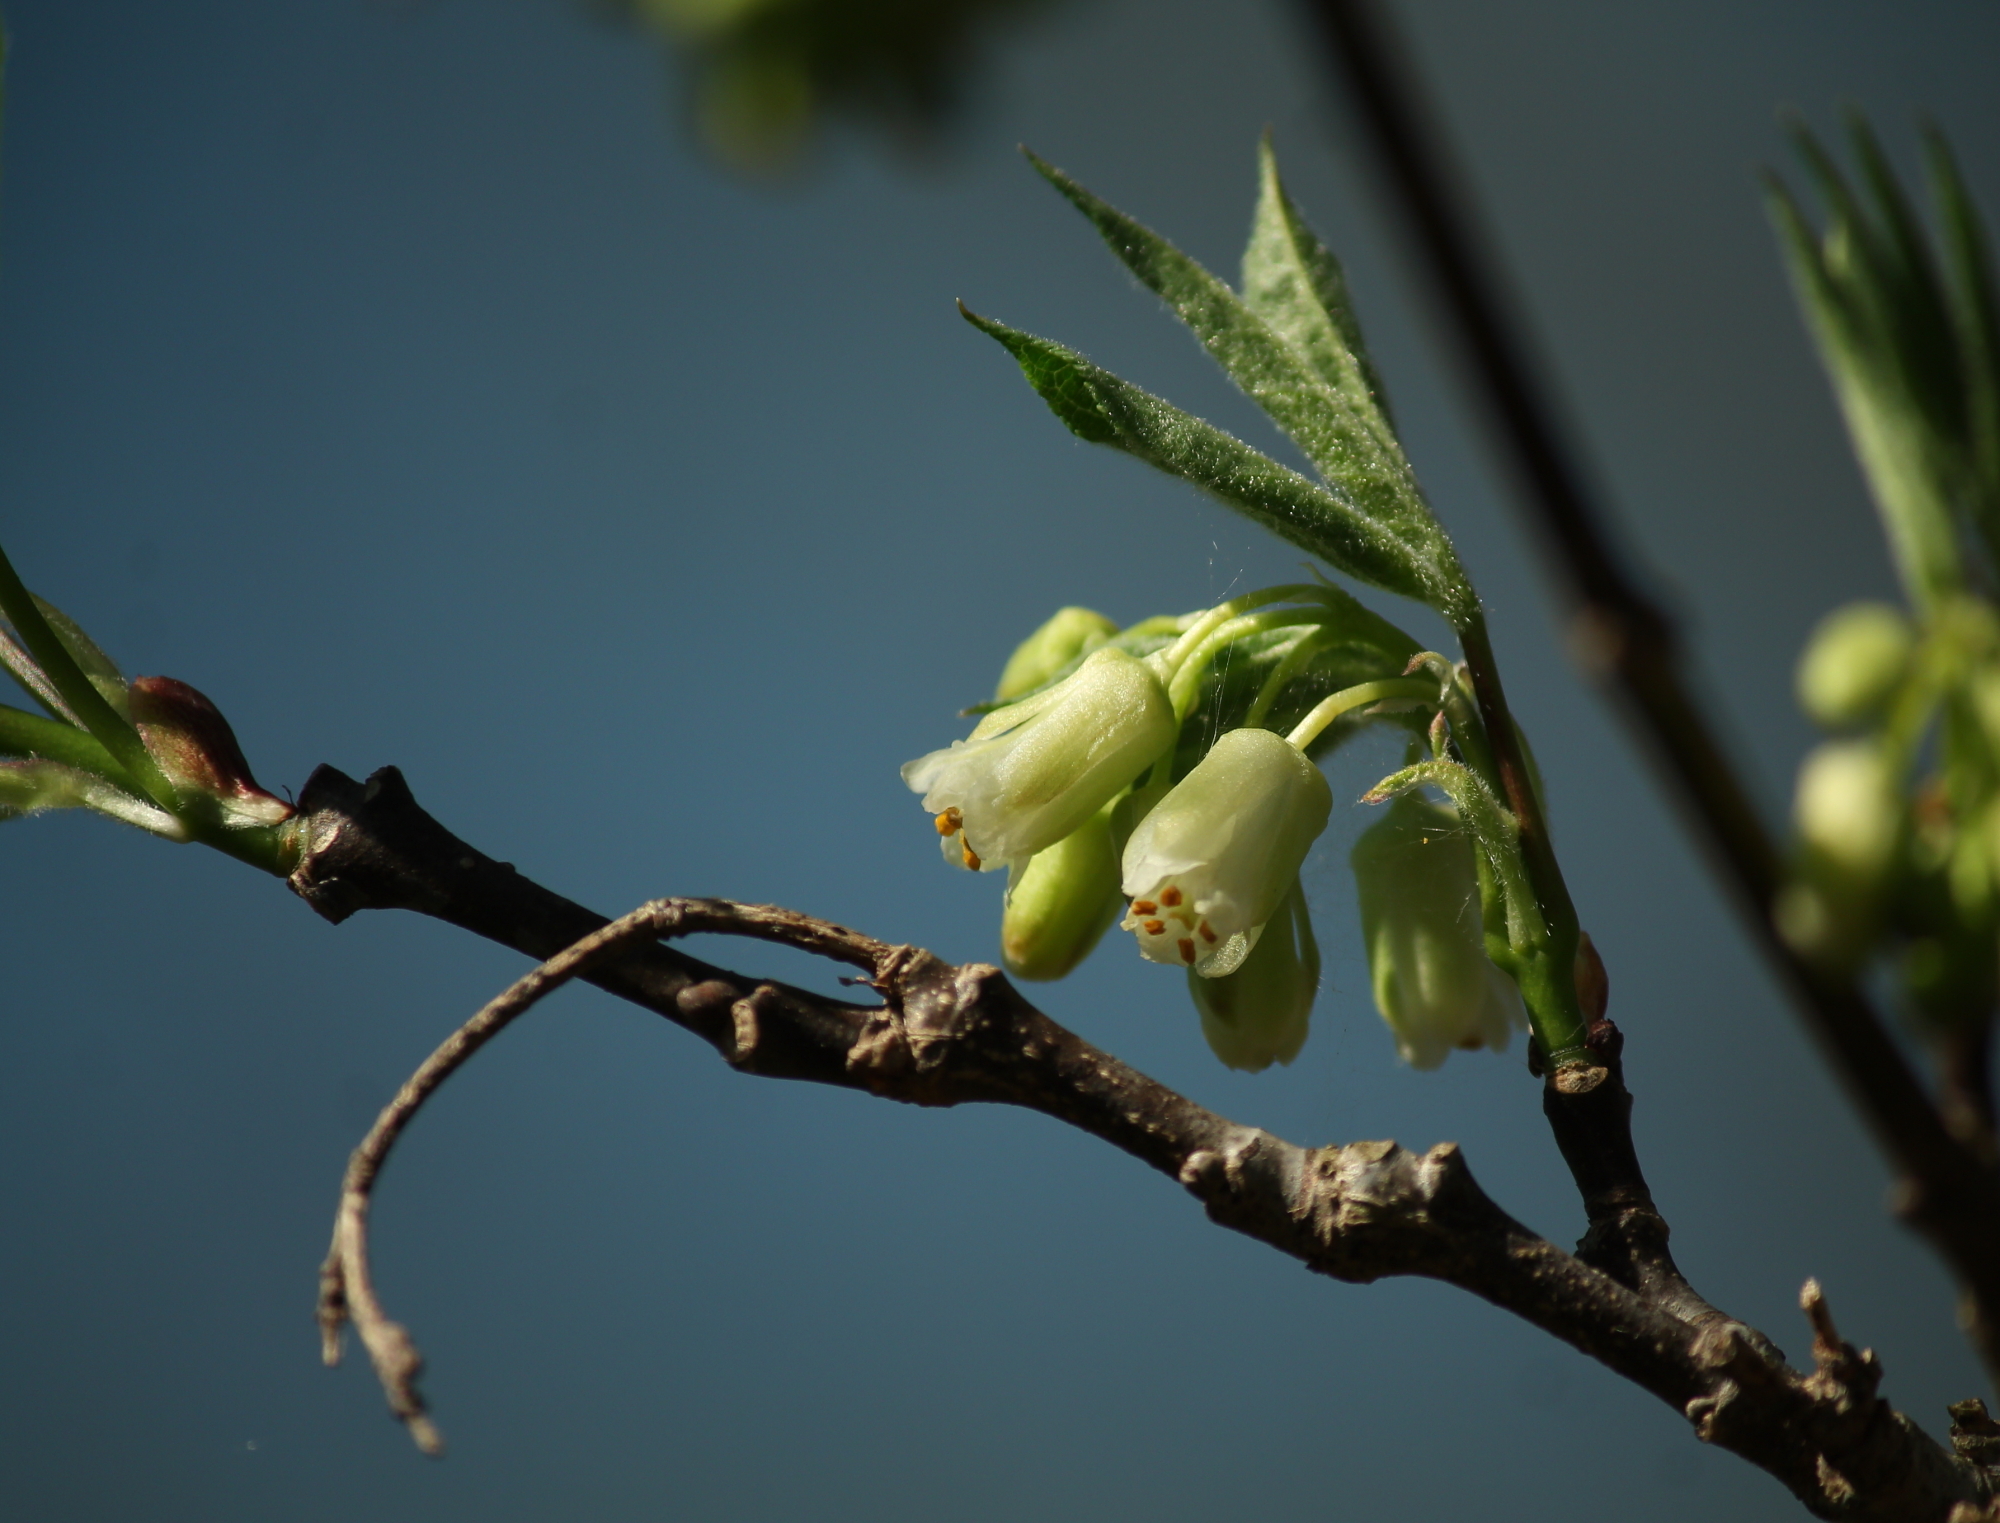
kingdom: Plantae
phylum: Tracheophyta
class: Magnoliopsida
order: Crossosomatales
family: Staphyleaceae
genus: Staphylea
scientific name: Staphylea trifolia
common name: American bladdernut
